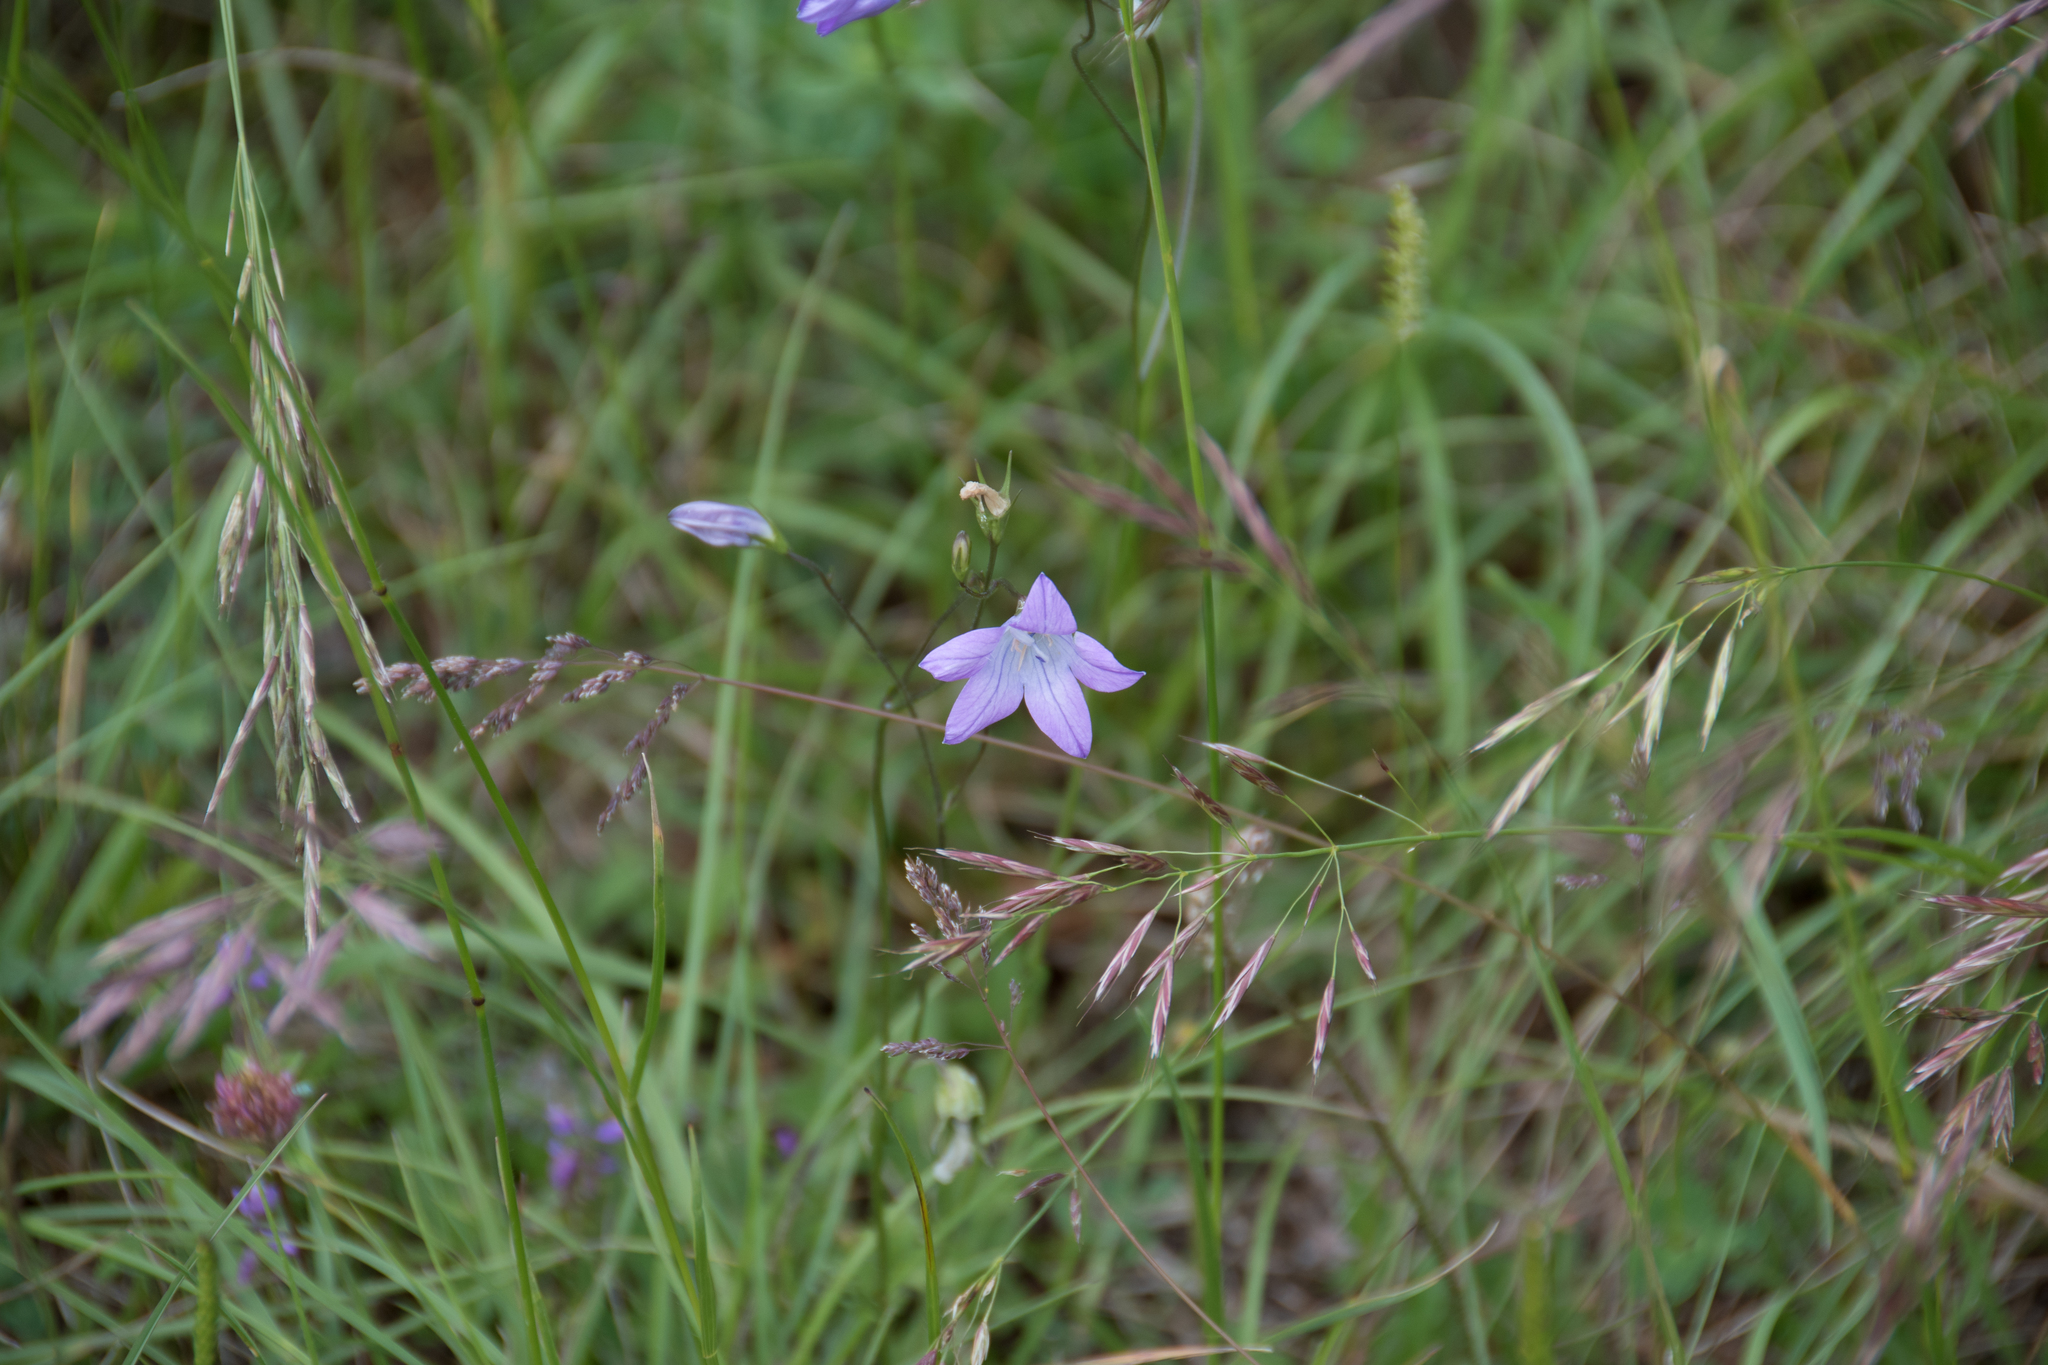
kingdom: Plantae
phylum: Tracheophyta
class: Magnoliopsida
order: Asterales
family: Campanulaceae
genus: Campanula
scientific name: Campanula patula
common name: Spreading bellflower
